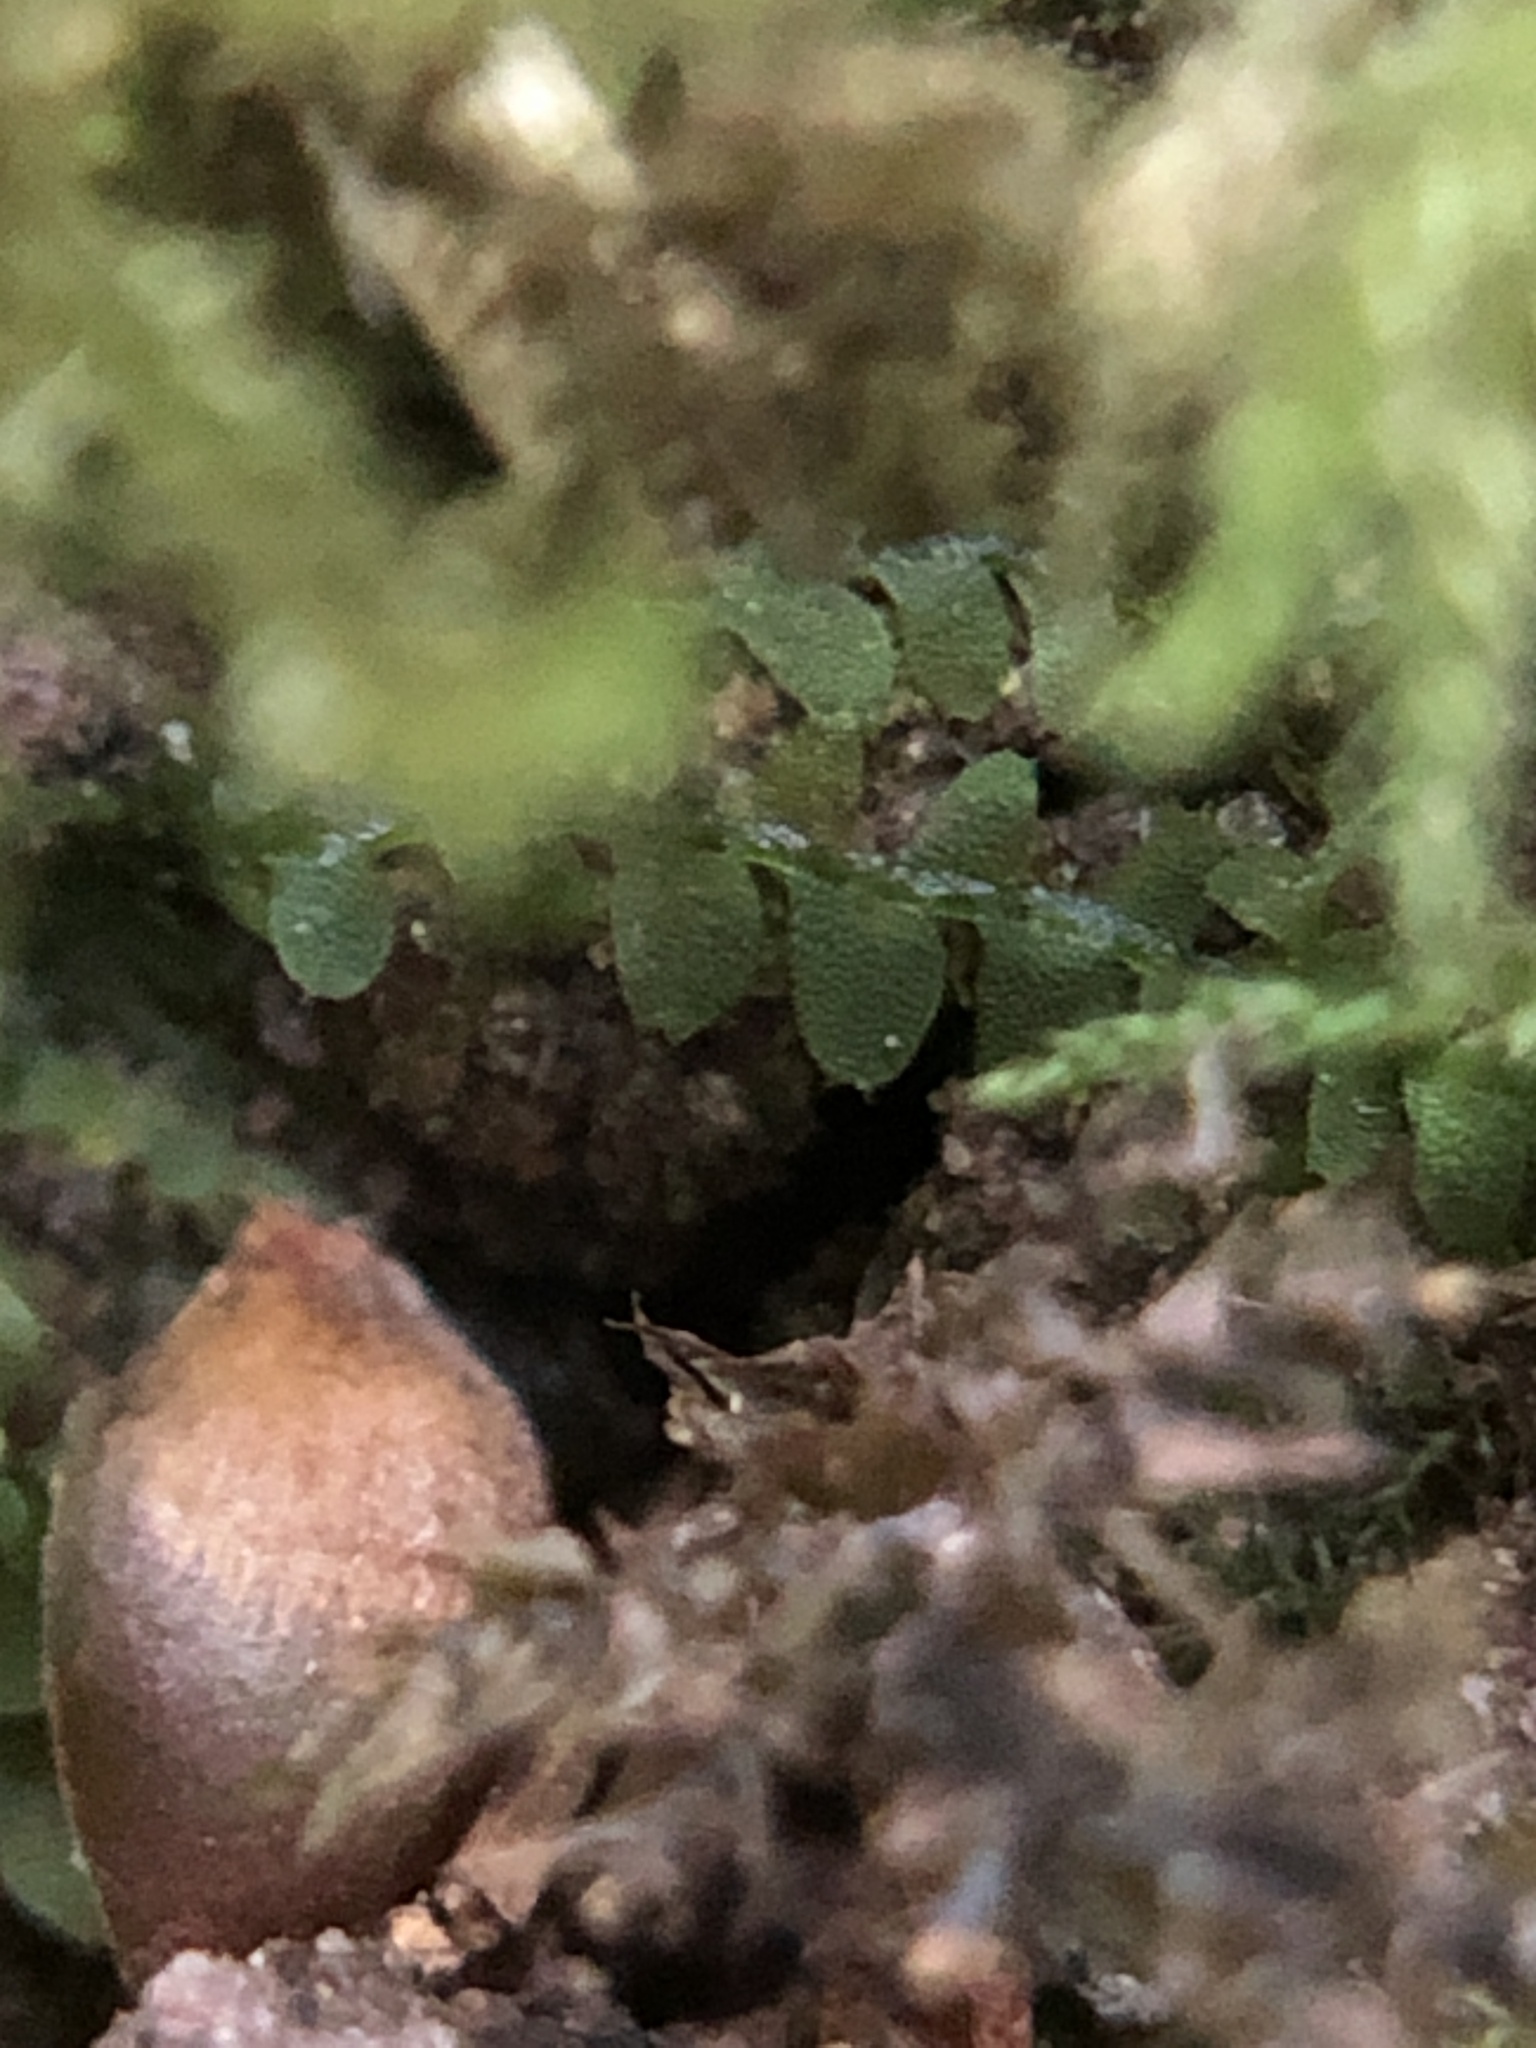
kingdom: Plantae
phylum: Marchantiophyta
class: Jungermanniopsida
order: Jungermanniales
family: Calypogeiaceae
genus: Asperifolia
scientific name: Asperifolia arguta
